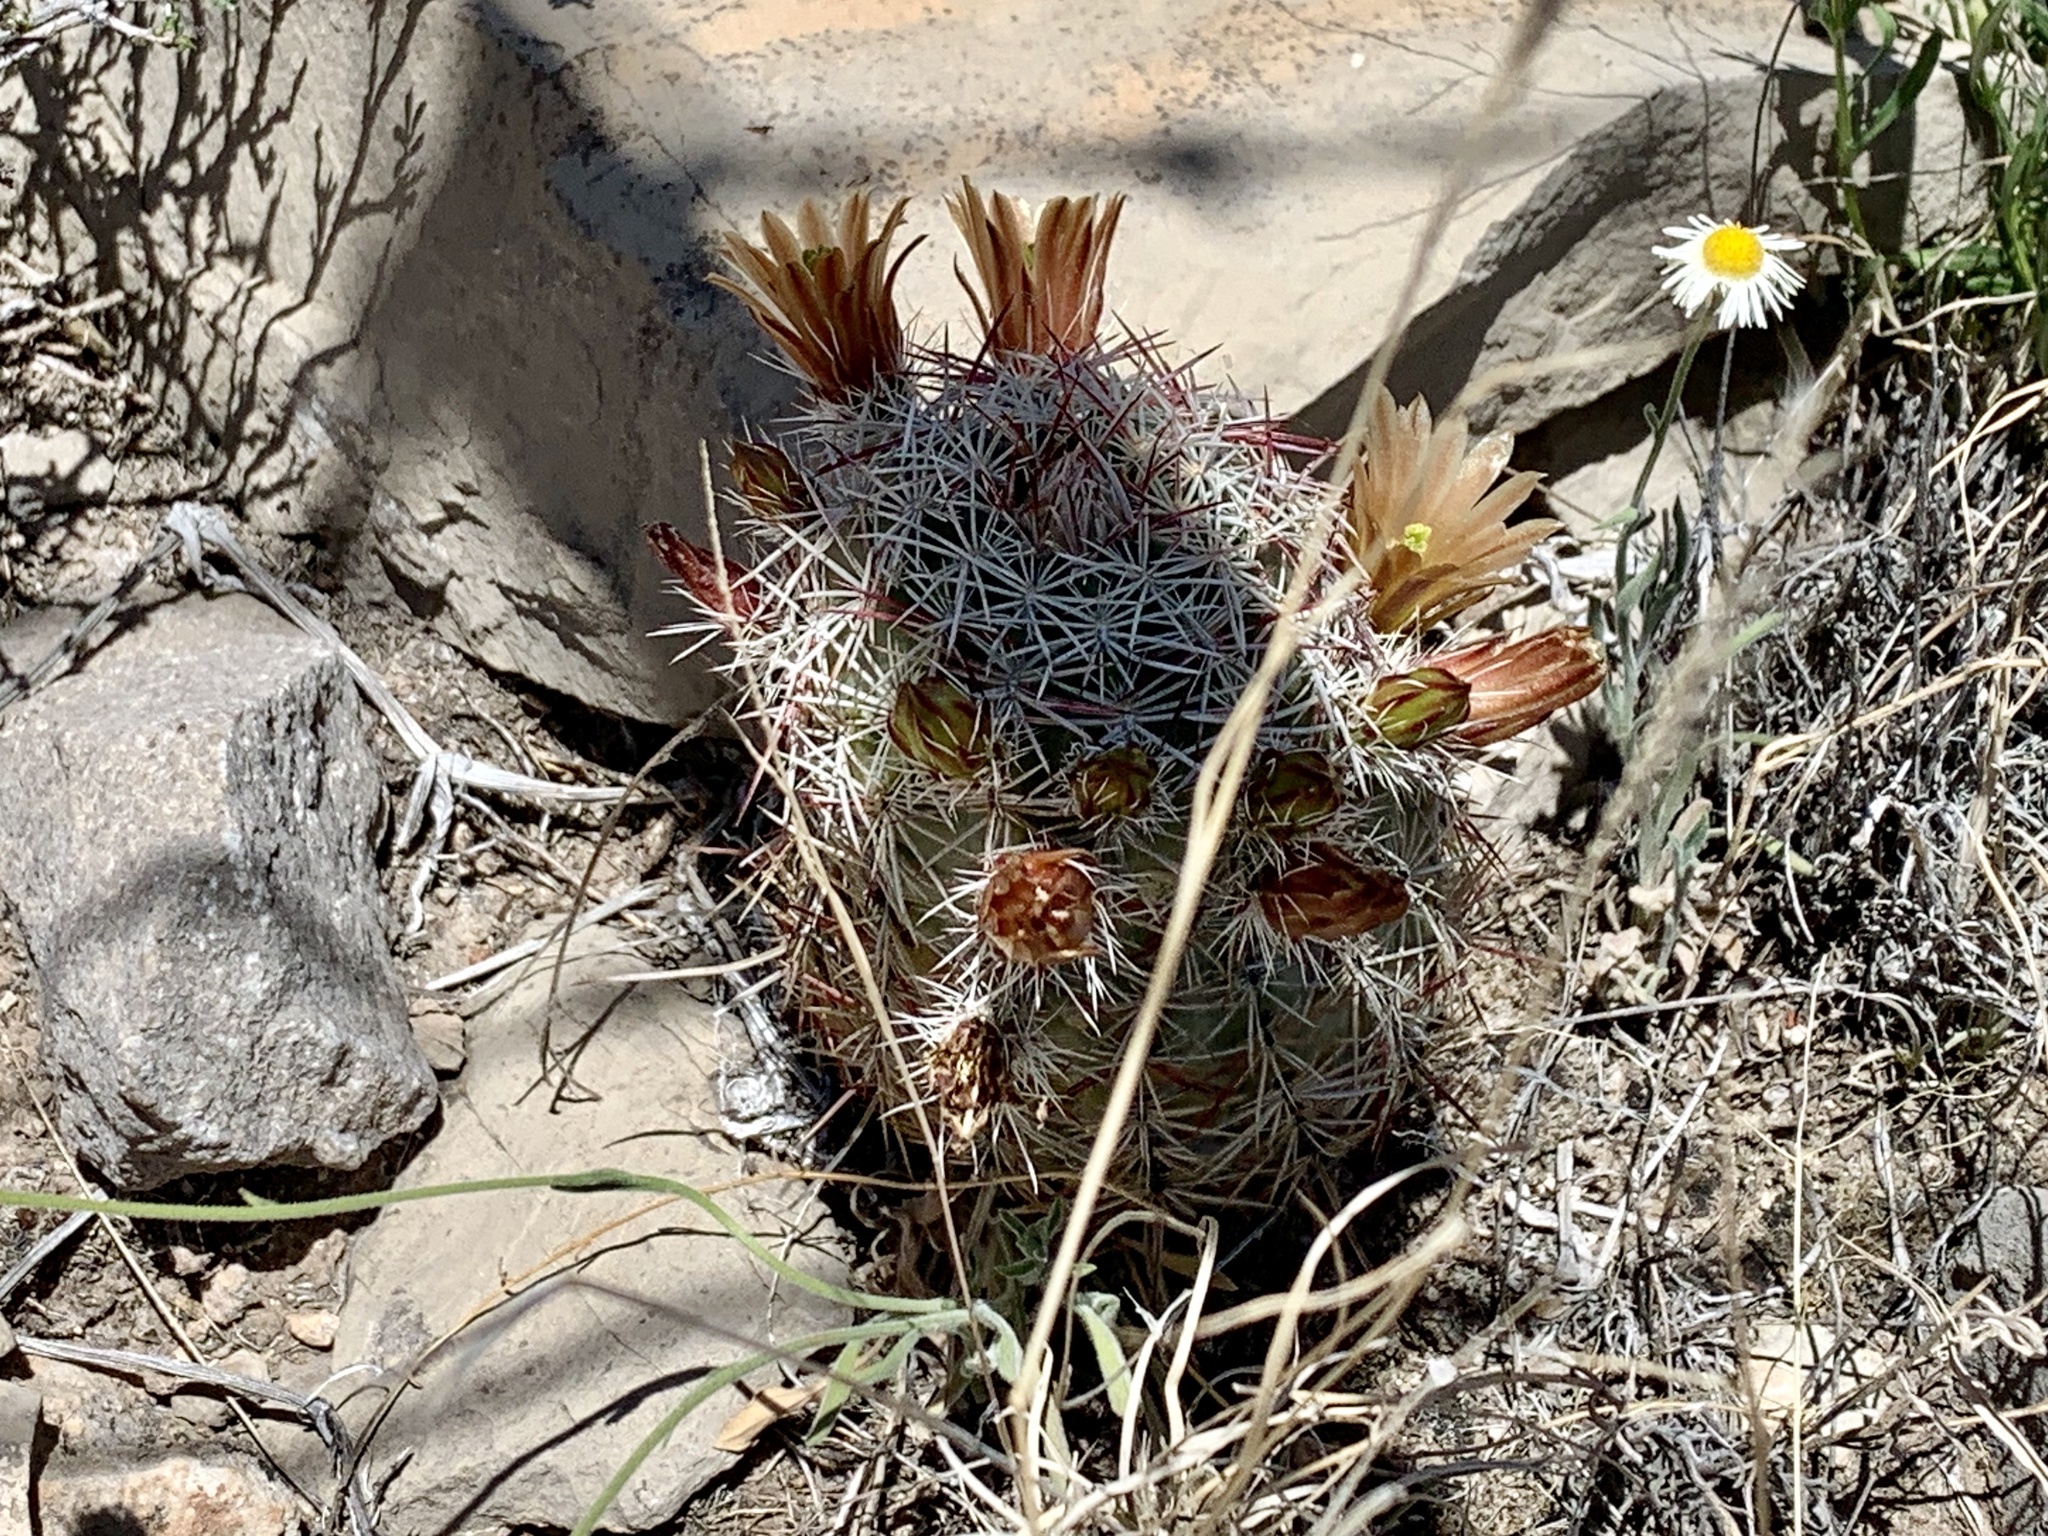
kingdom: Plantae
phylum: Tracheophyta
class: Magnoliopsida
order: Caryophyllales
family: Cactaceae
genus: Echinocereus
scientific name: Echinocereus viridiflorus
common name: Nylon hedgehog cactus
